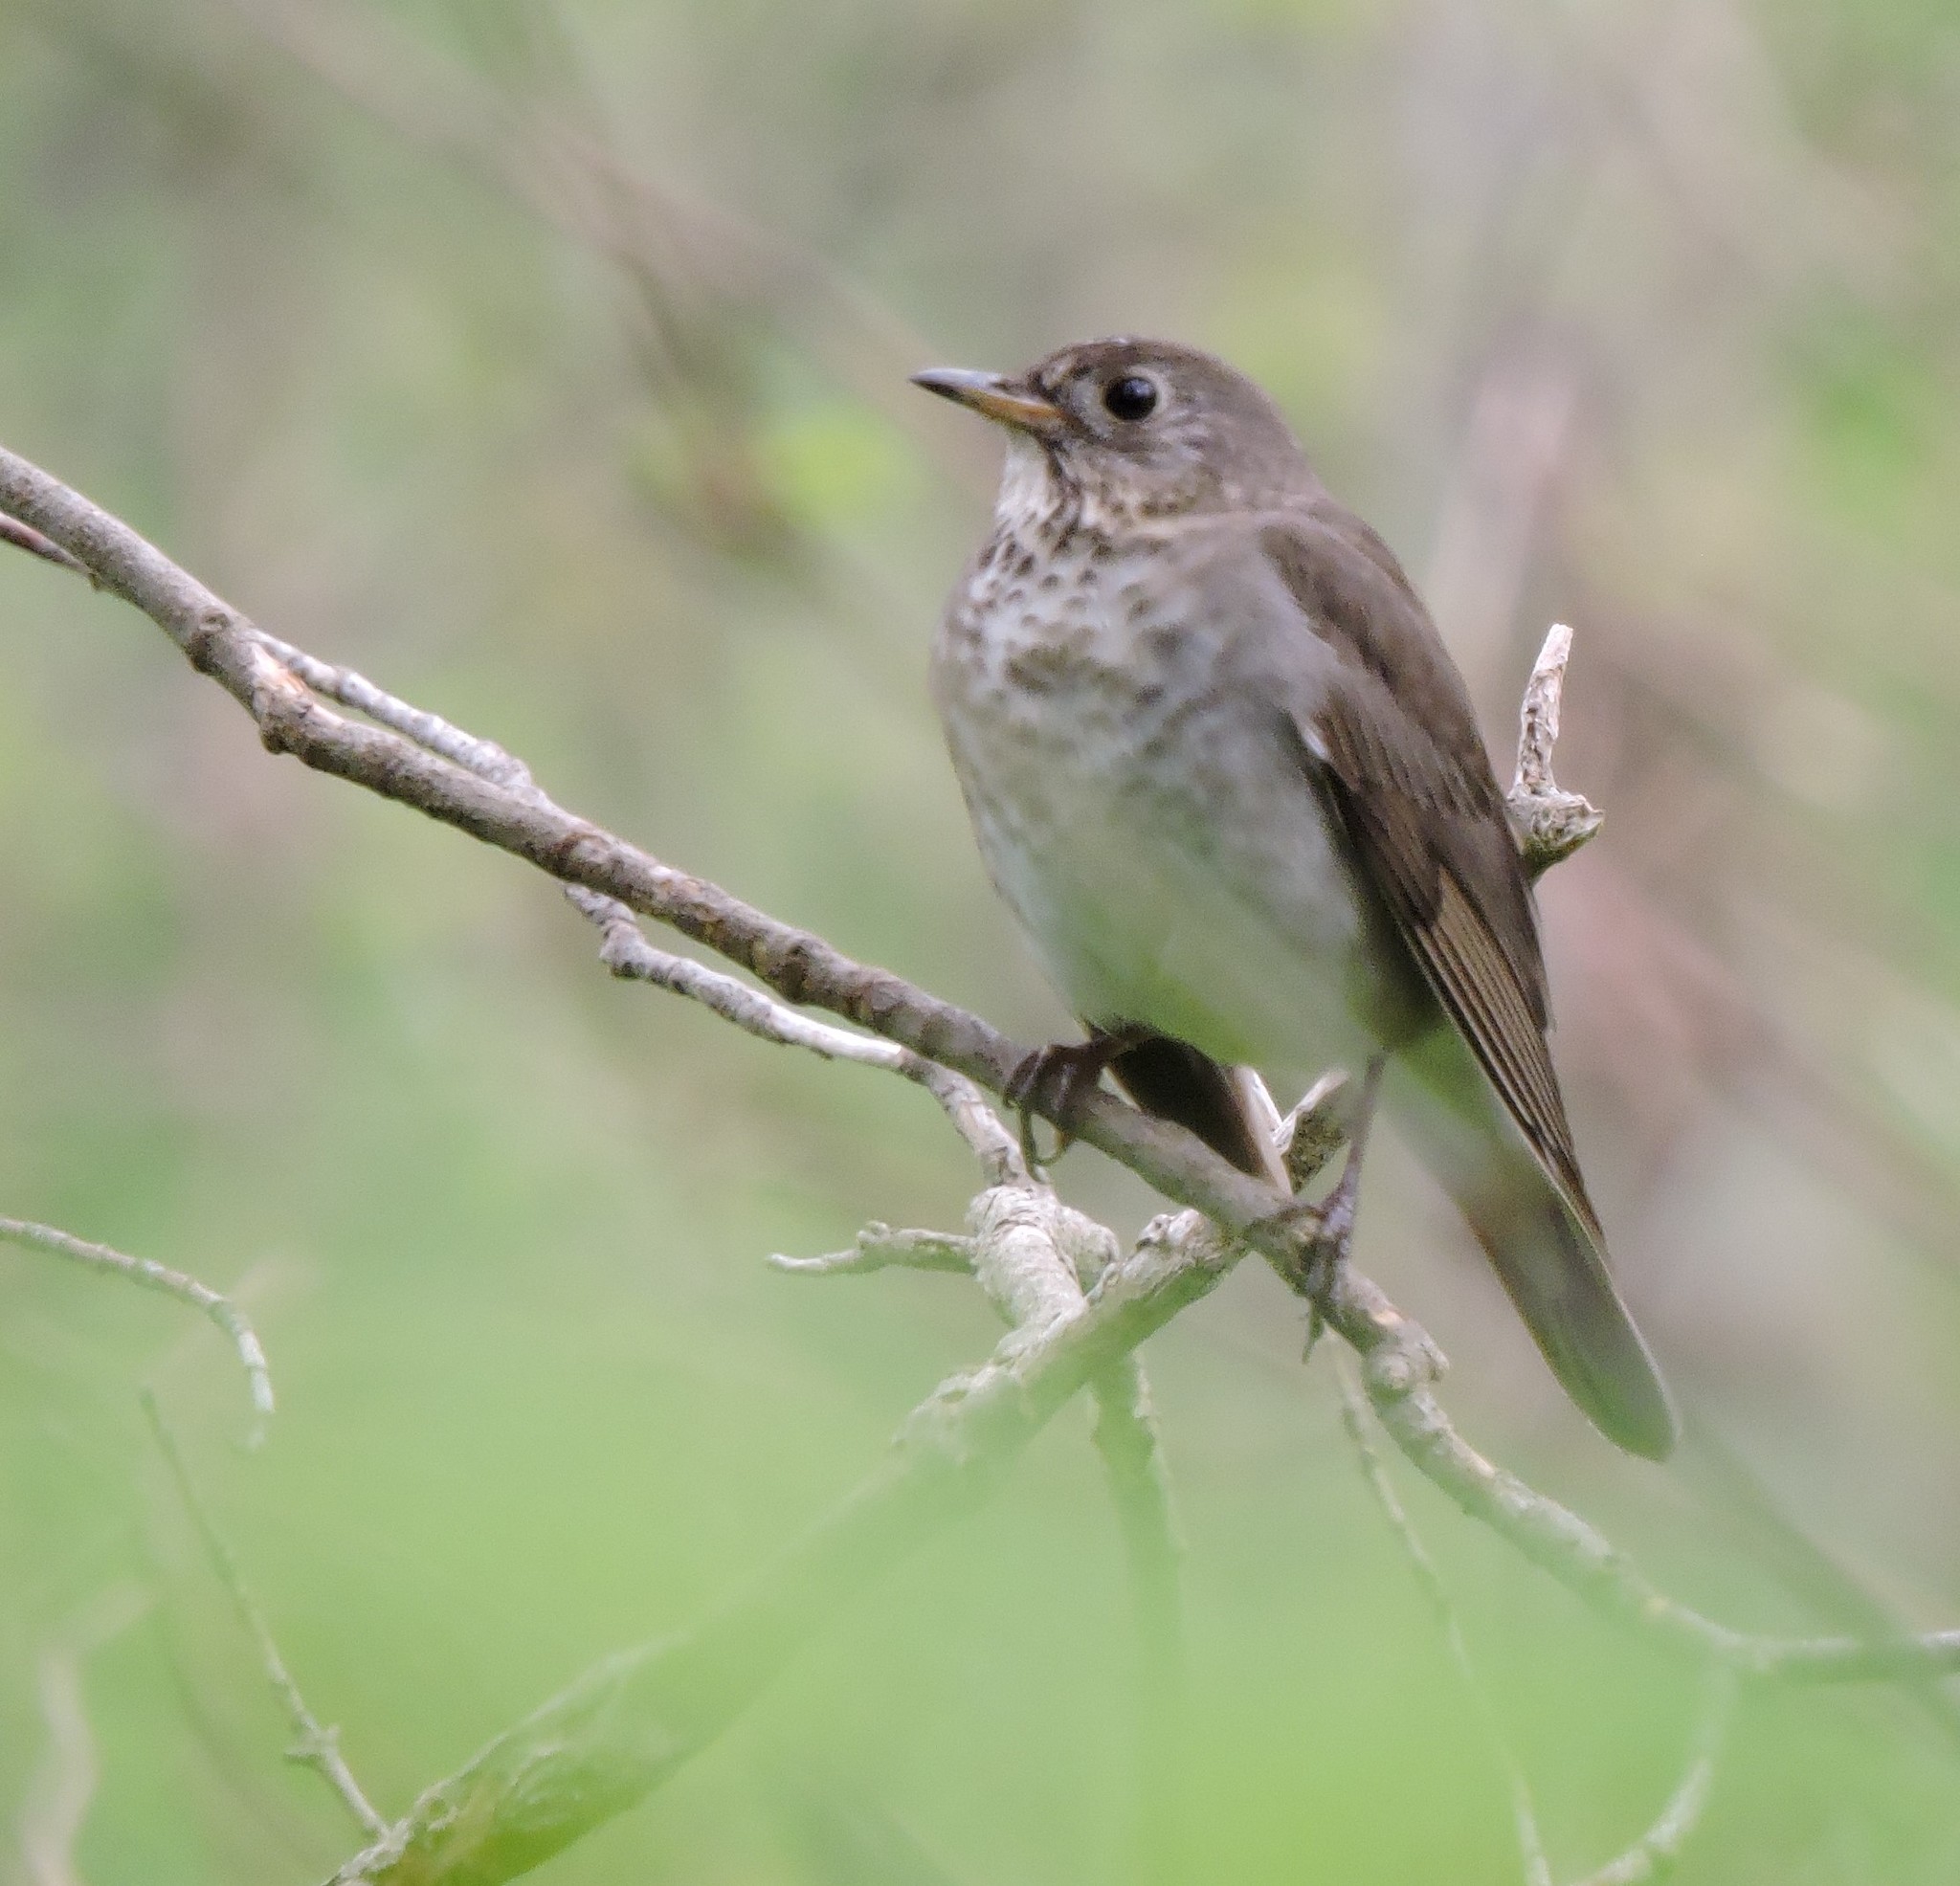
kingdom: Animalia
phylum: Chordata
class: Aves
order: Passeriformes
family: Turdidae
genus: Catharus
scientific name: Catharus minimus
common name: Grey-cheeked thrush
